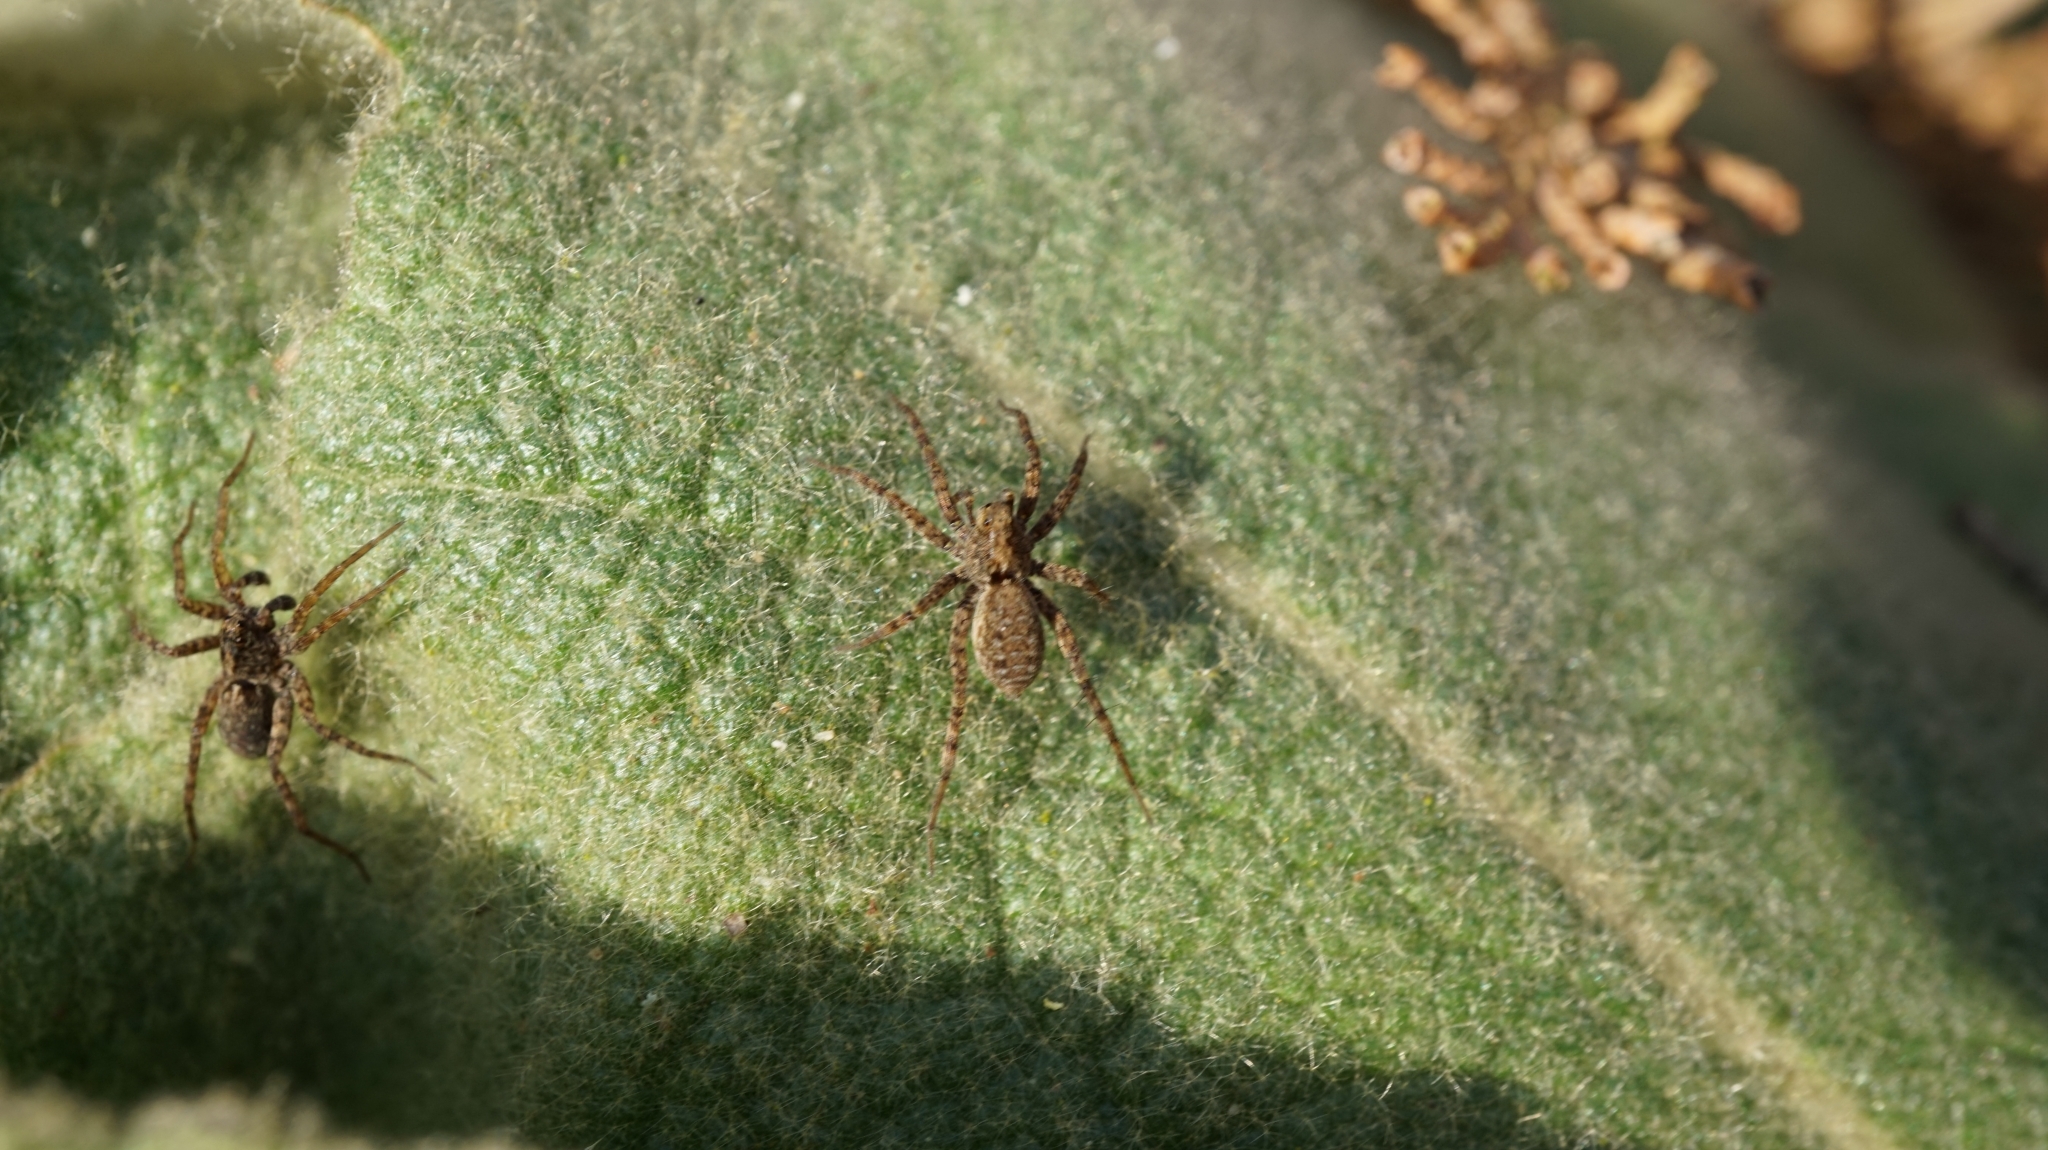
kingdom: Animalia
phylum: Arthropoda
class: Arachnida
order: Araneae
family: Lycosidae
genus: Pardosa
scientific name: Pardosa amentata
